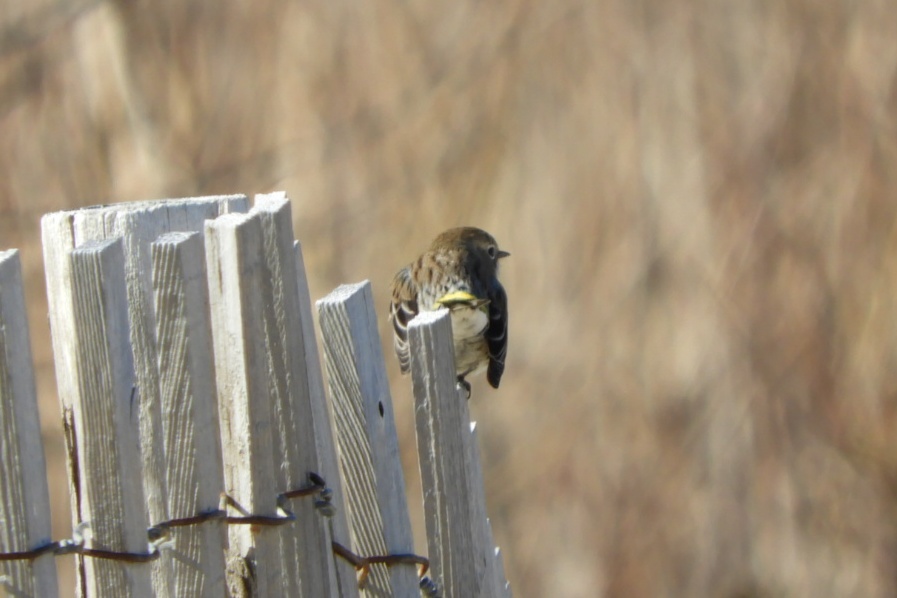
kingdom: Animalia
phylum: Chordata
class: Aves
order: Passeriformes
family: Parulidae
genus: Setophaga
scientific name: Setophaga coronata
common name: Myrtle warbler
